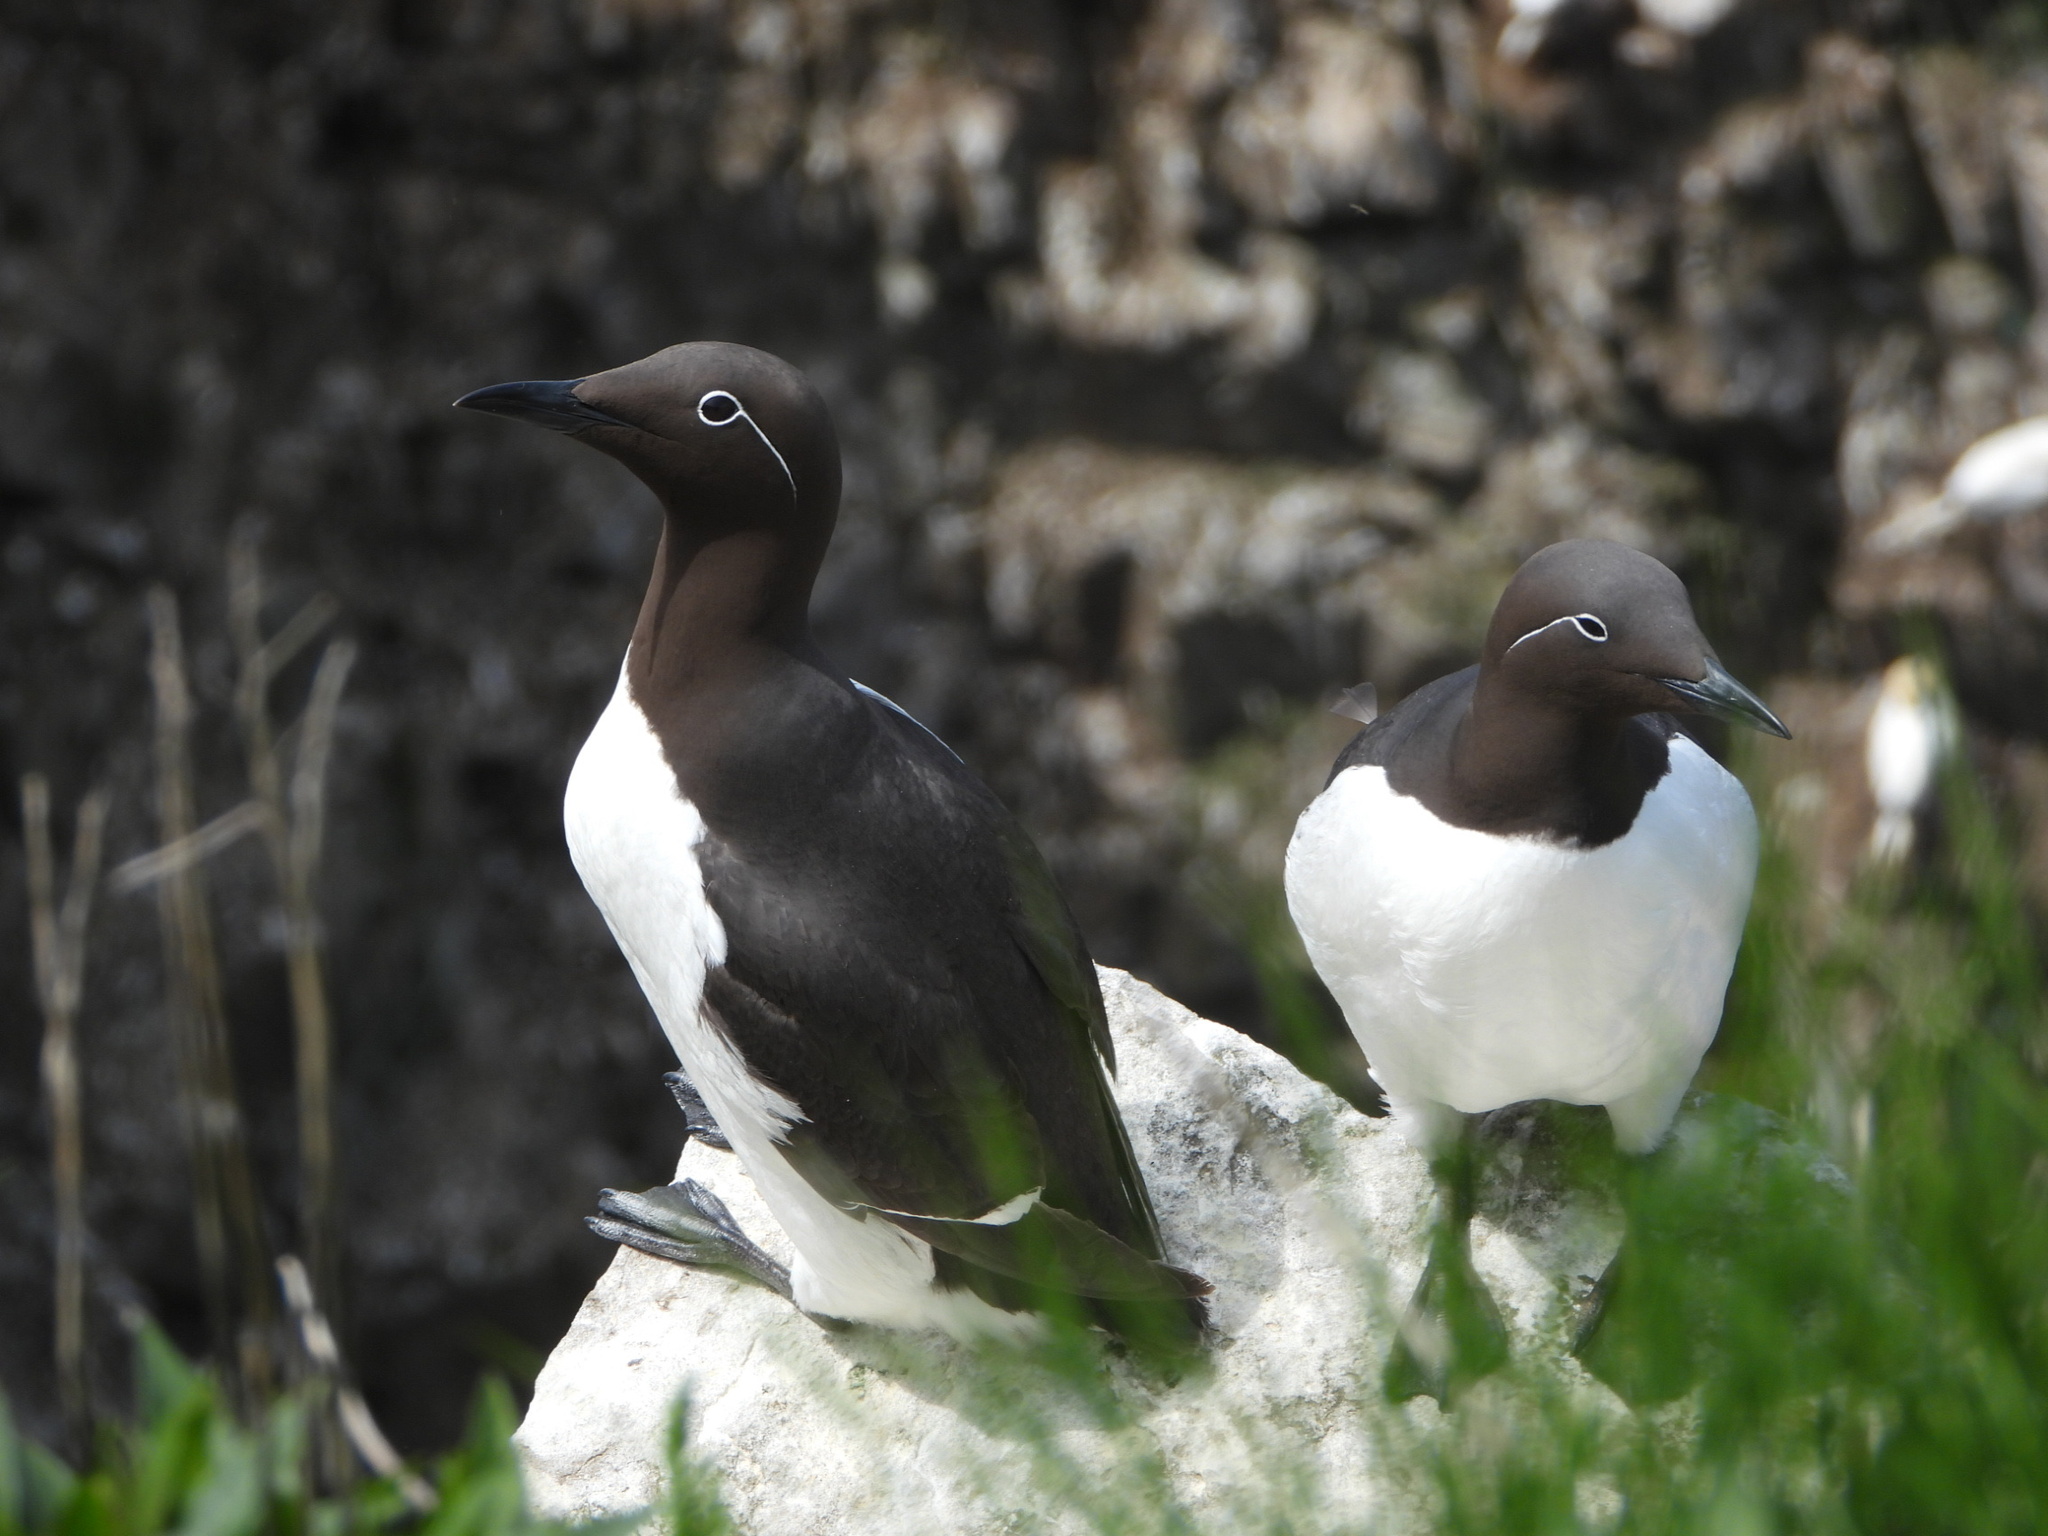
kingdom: Animalia
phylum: Chordata
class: Aves
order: Charadriiformes
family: Alcidae
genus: Uria
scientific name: Uria aalge
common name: Common murre
